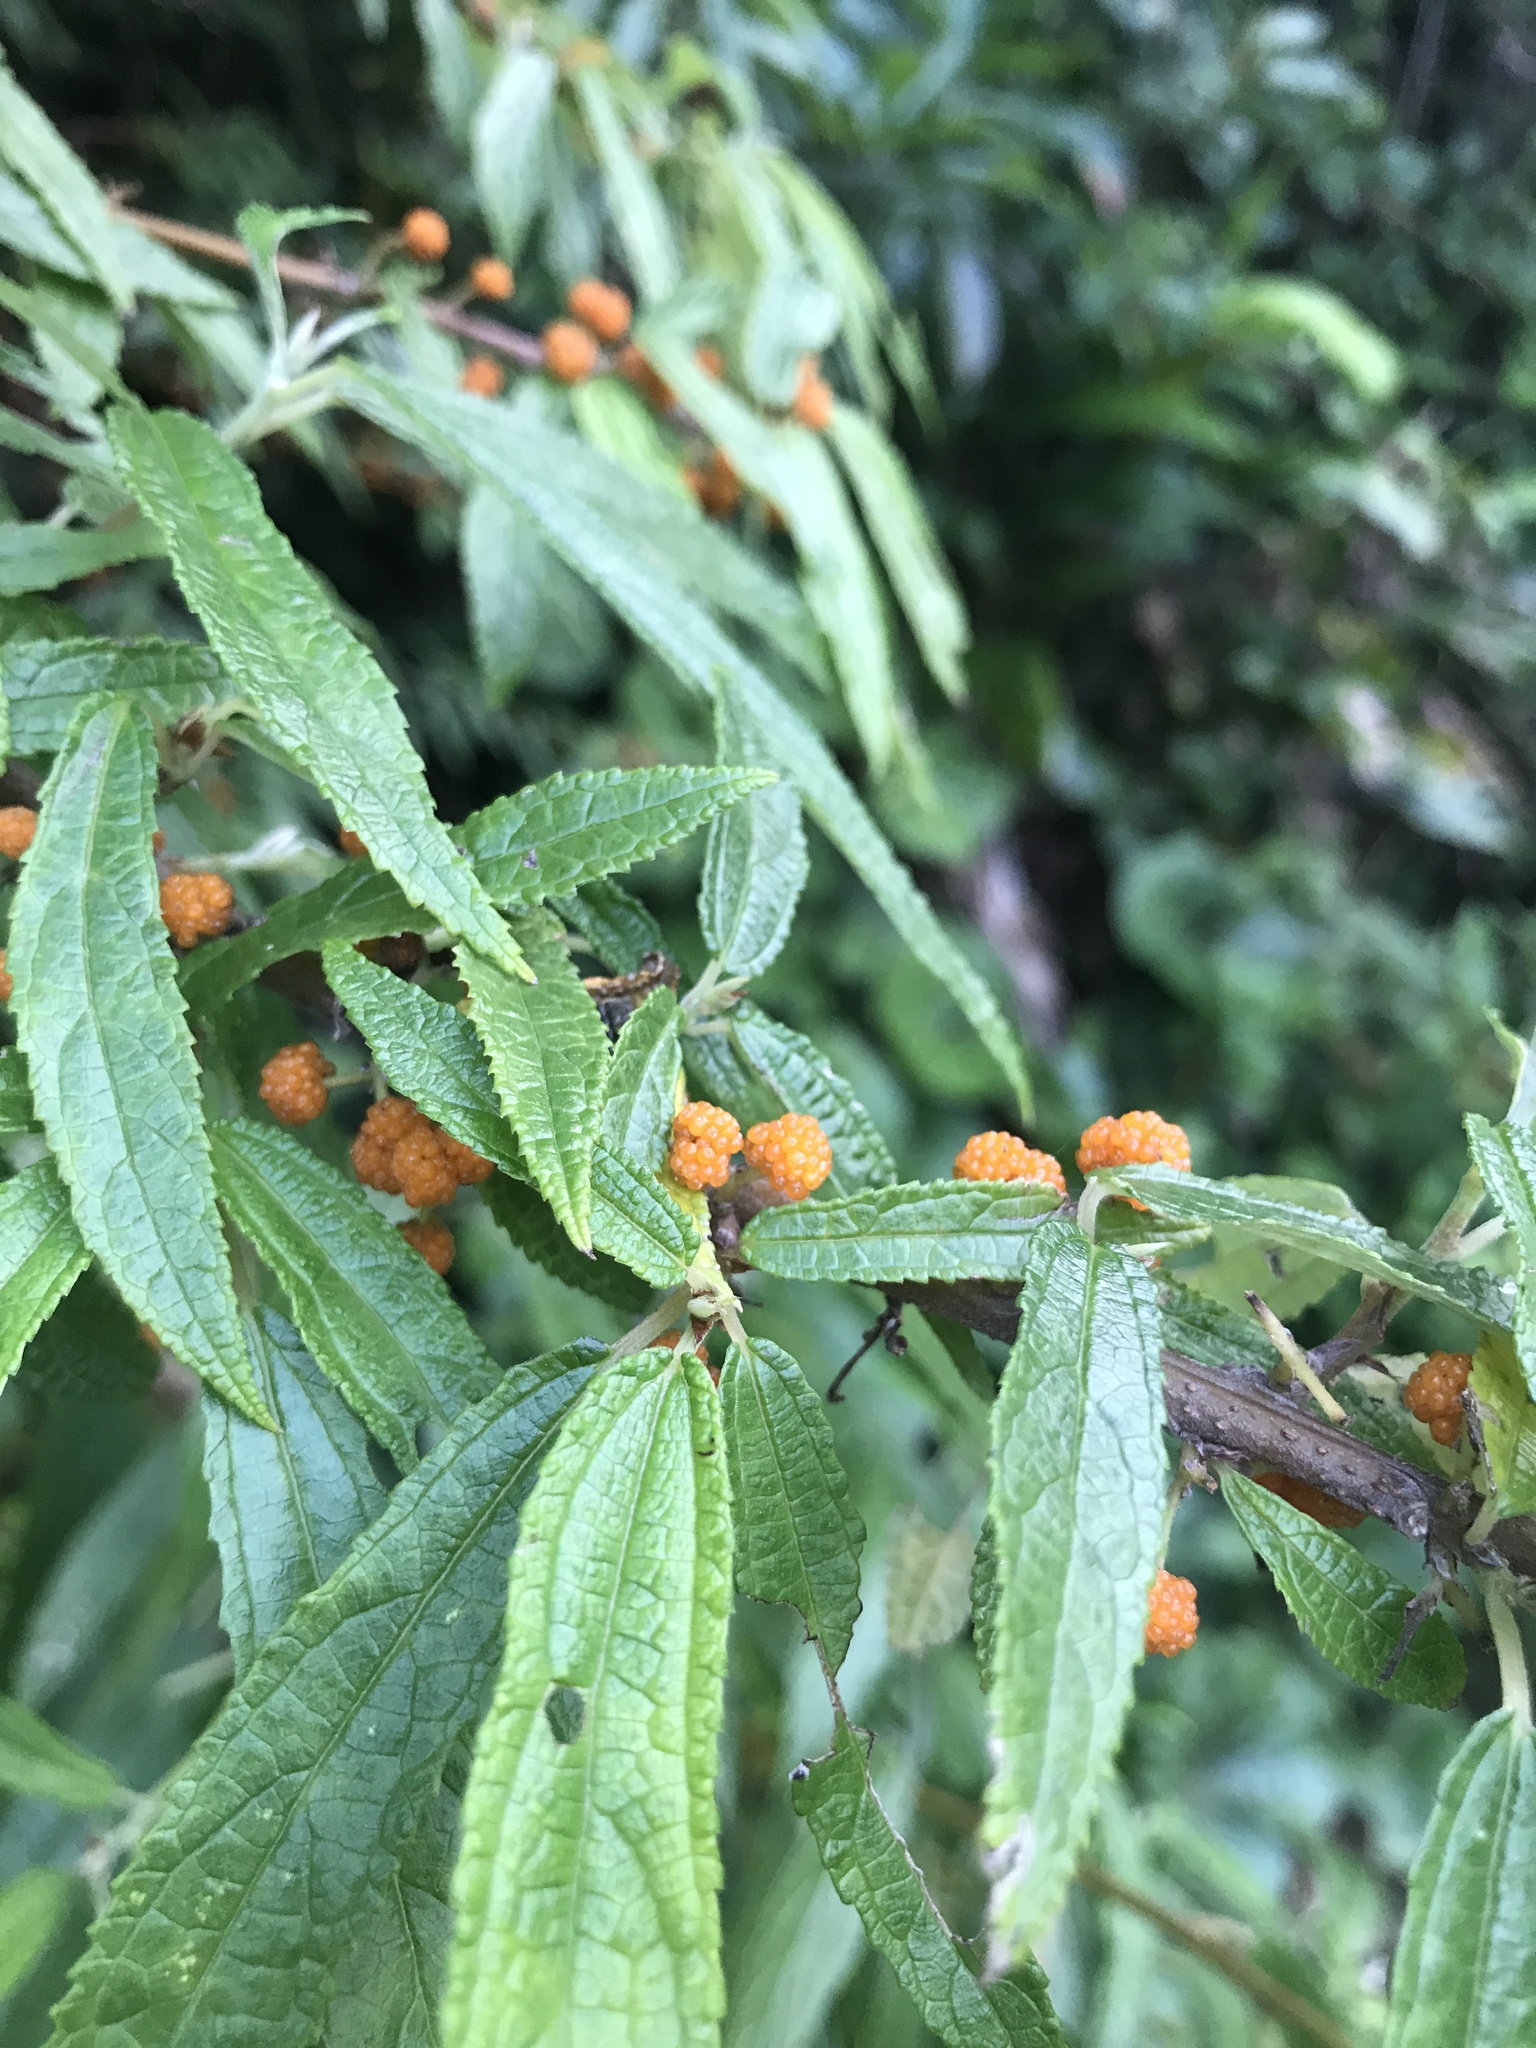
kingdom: Plantae
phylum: Tracheophyta
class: Magnoliopsida
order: Rosales
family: Urticaceae
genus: Debregeasia
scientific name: Debregeasia orientalis
